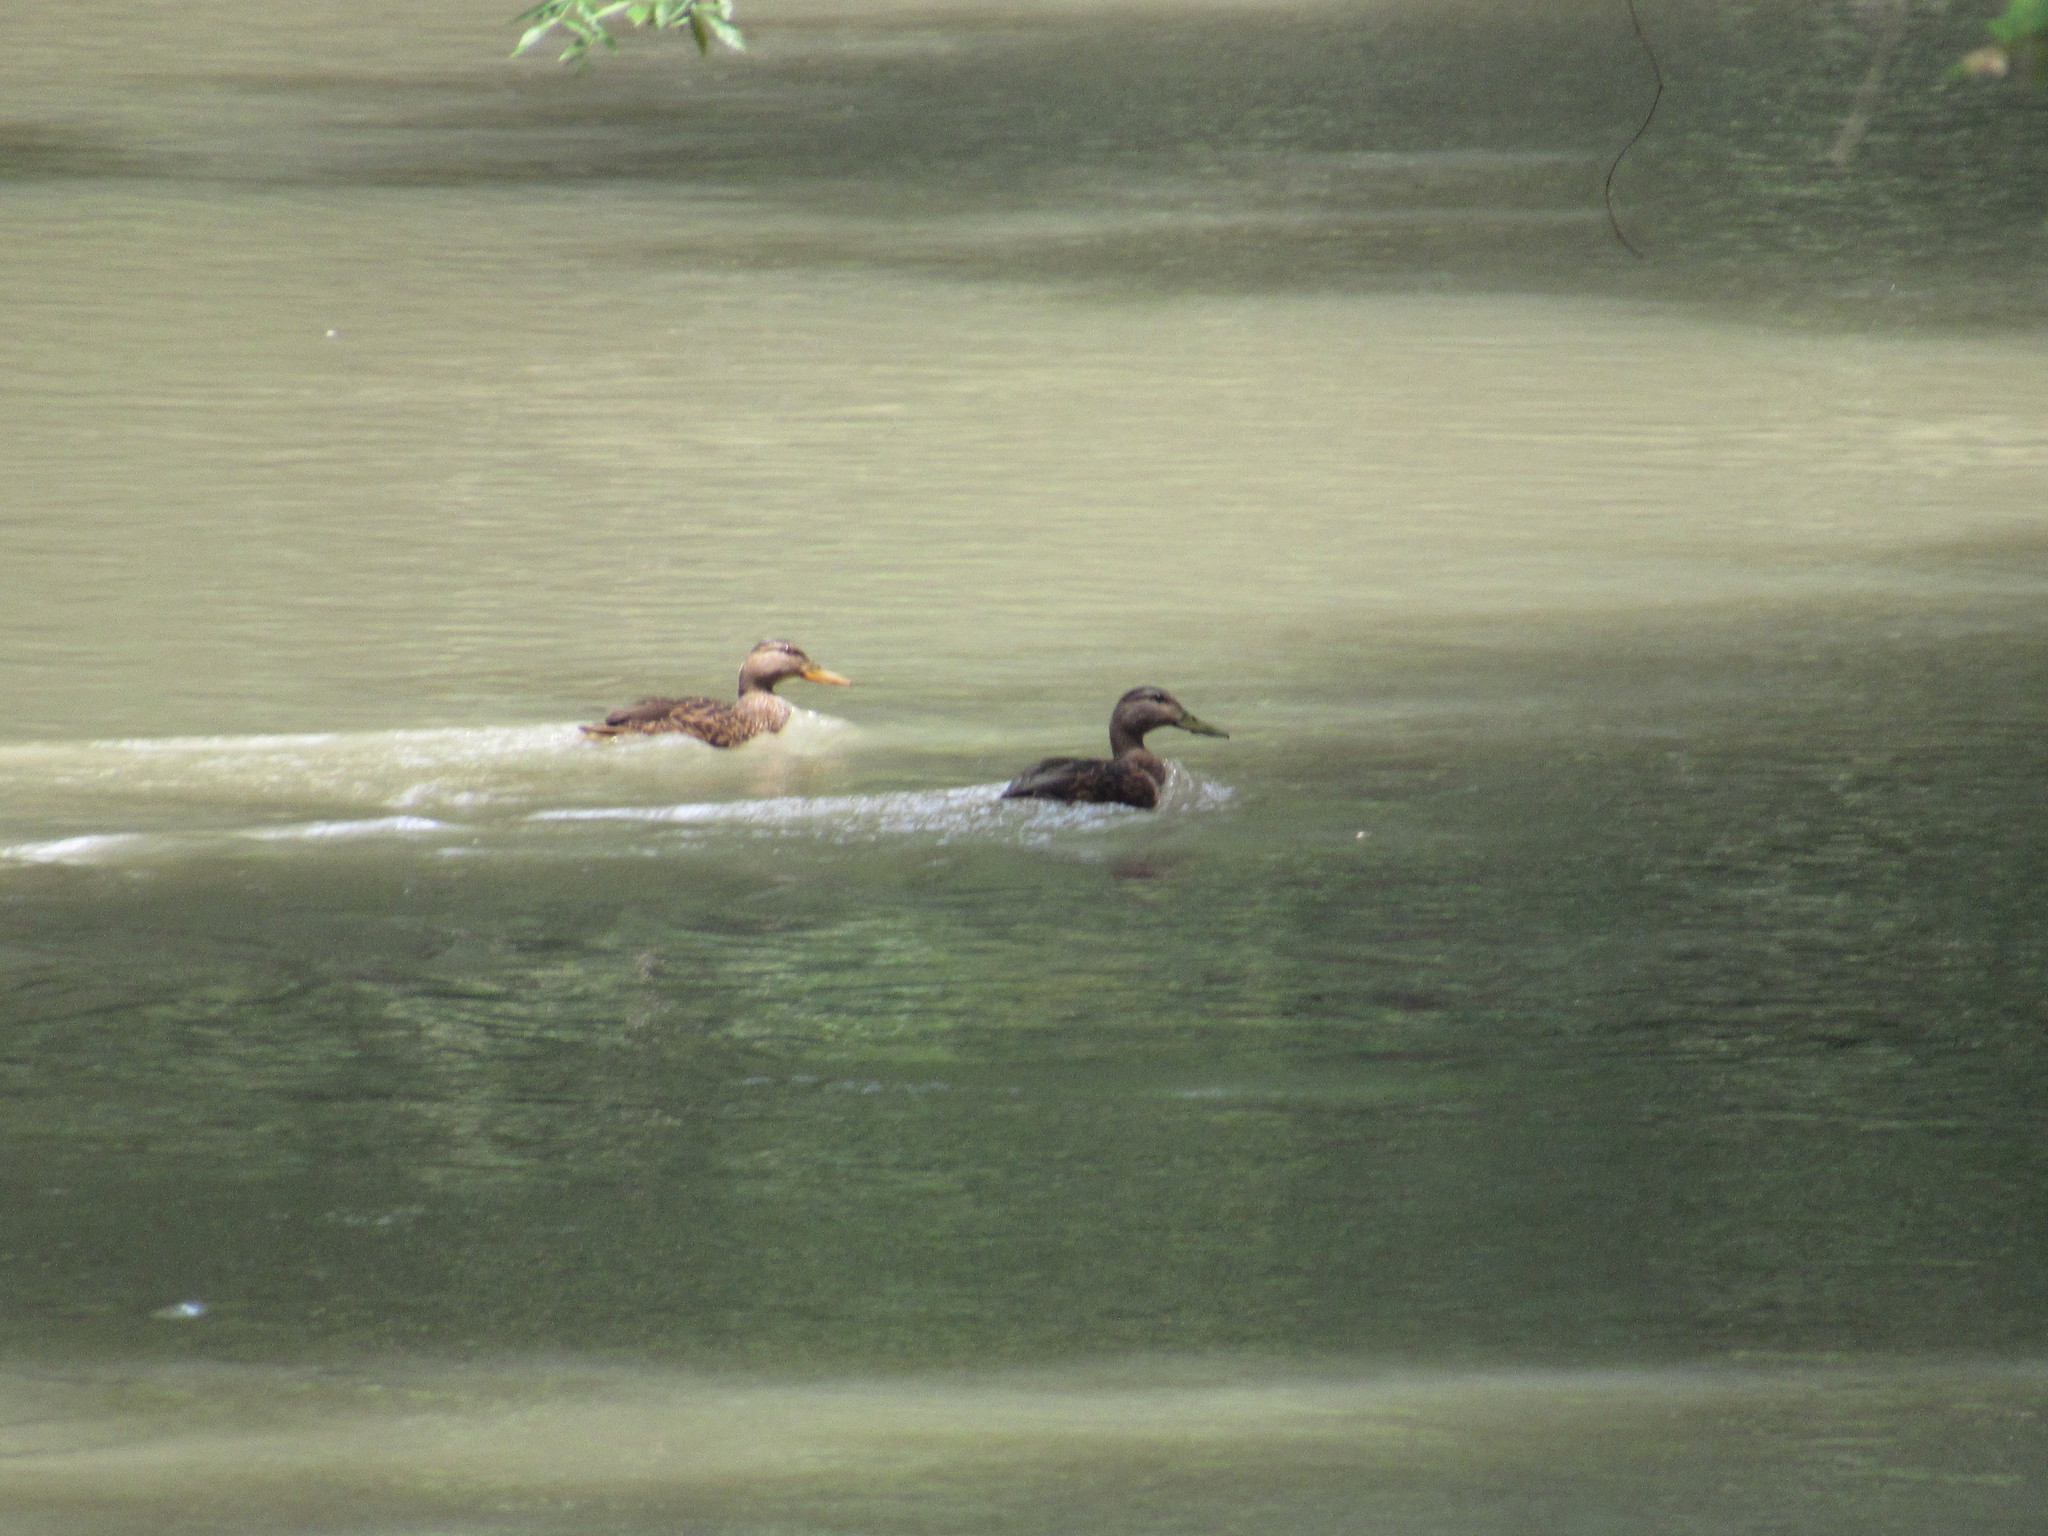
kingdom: Animalia
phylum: Chordata
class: Aves
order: Anseriformes
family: Anatidae
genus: Anas
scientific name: Anas diazi
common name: Mexican duck
